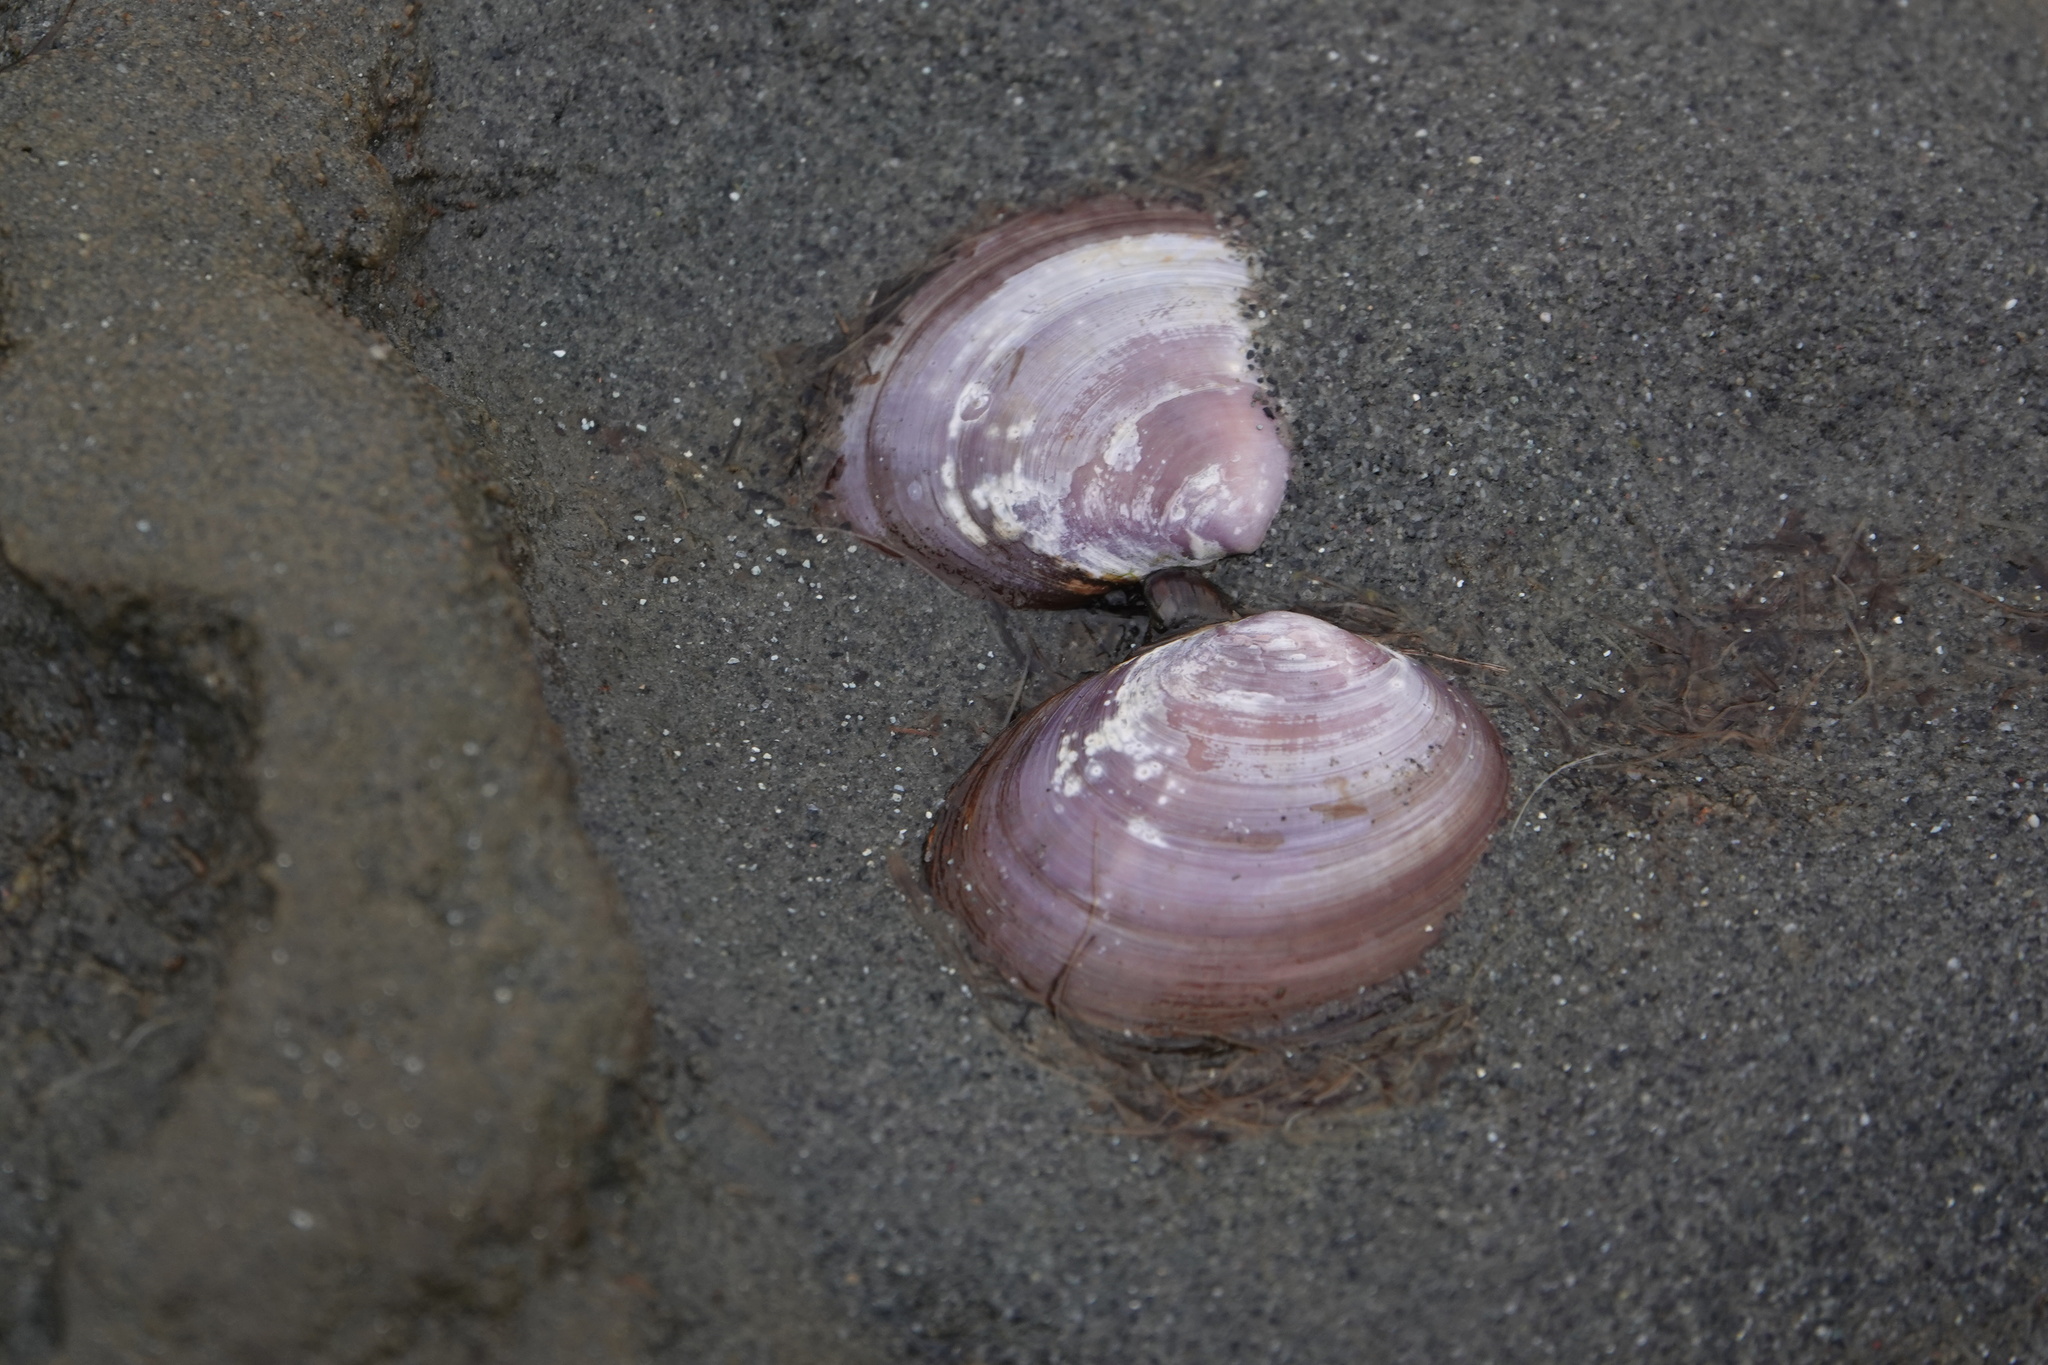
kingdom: Animalia
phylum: Mollusca
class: Bivalvia
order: Cardiida
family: Psammobiidae
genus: Nuttallia
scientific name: Nuttallia obscurata
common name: Purple mahogany-clam
